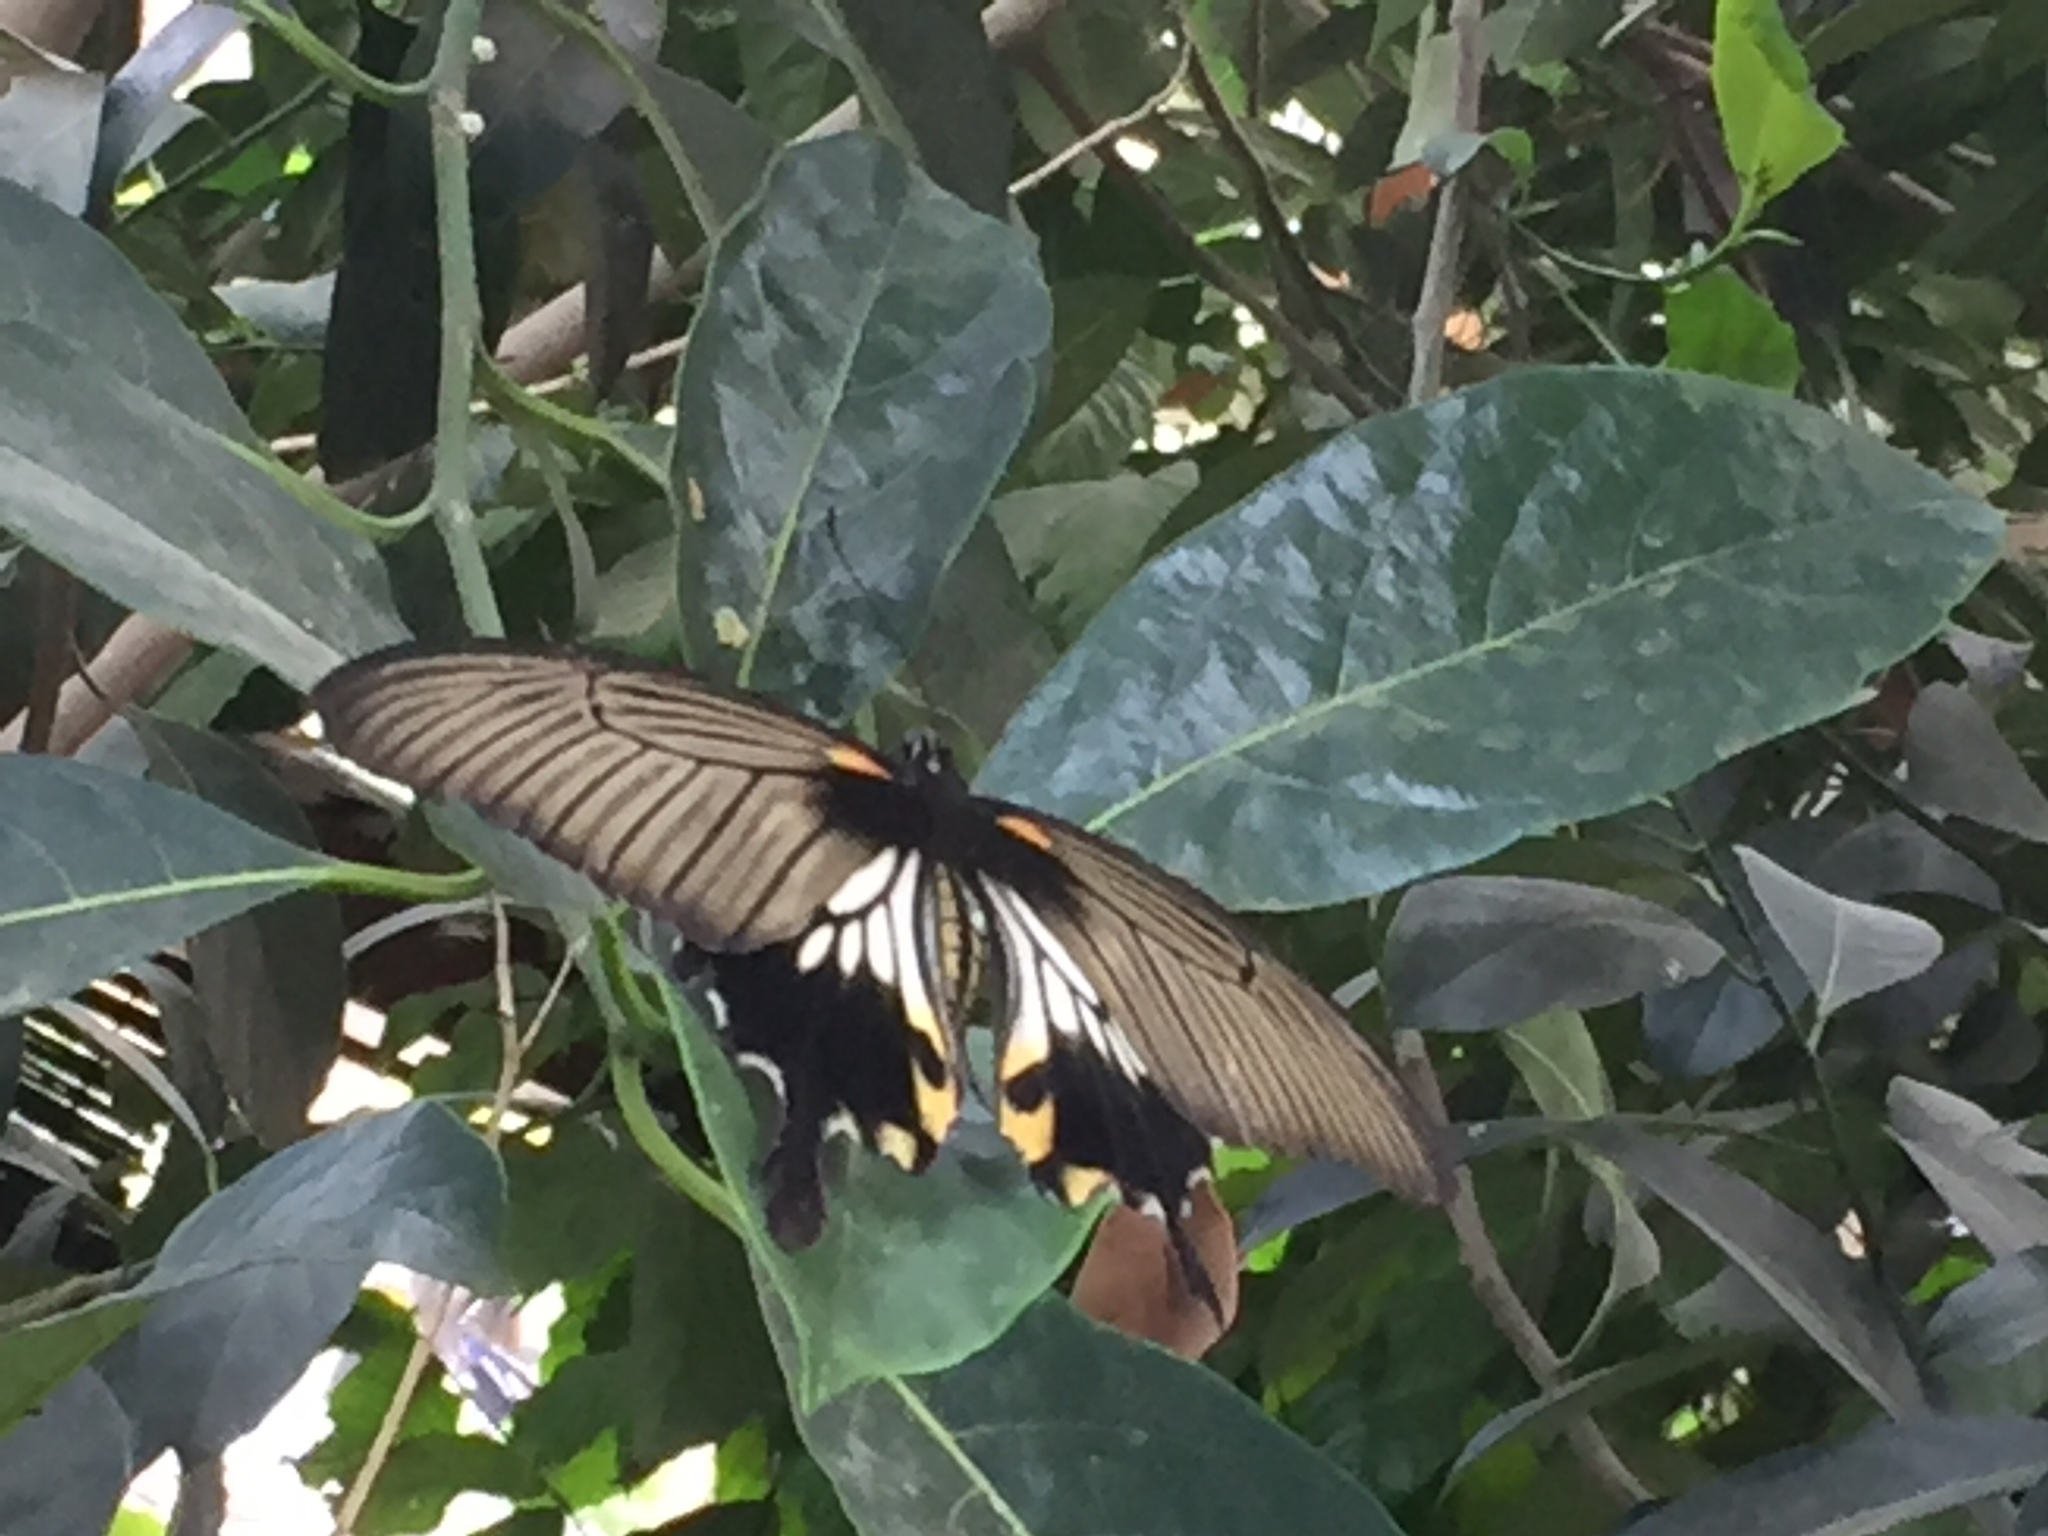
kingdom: Animalia
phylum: Arthropoda
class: Insecta
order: Lepidoptera
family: Papilionidae
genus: Papilio
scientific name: Papilio memnon
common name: Great mormon
